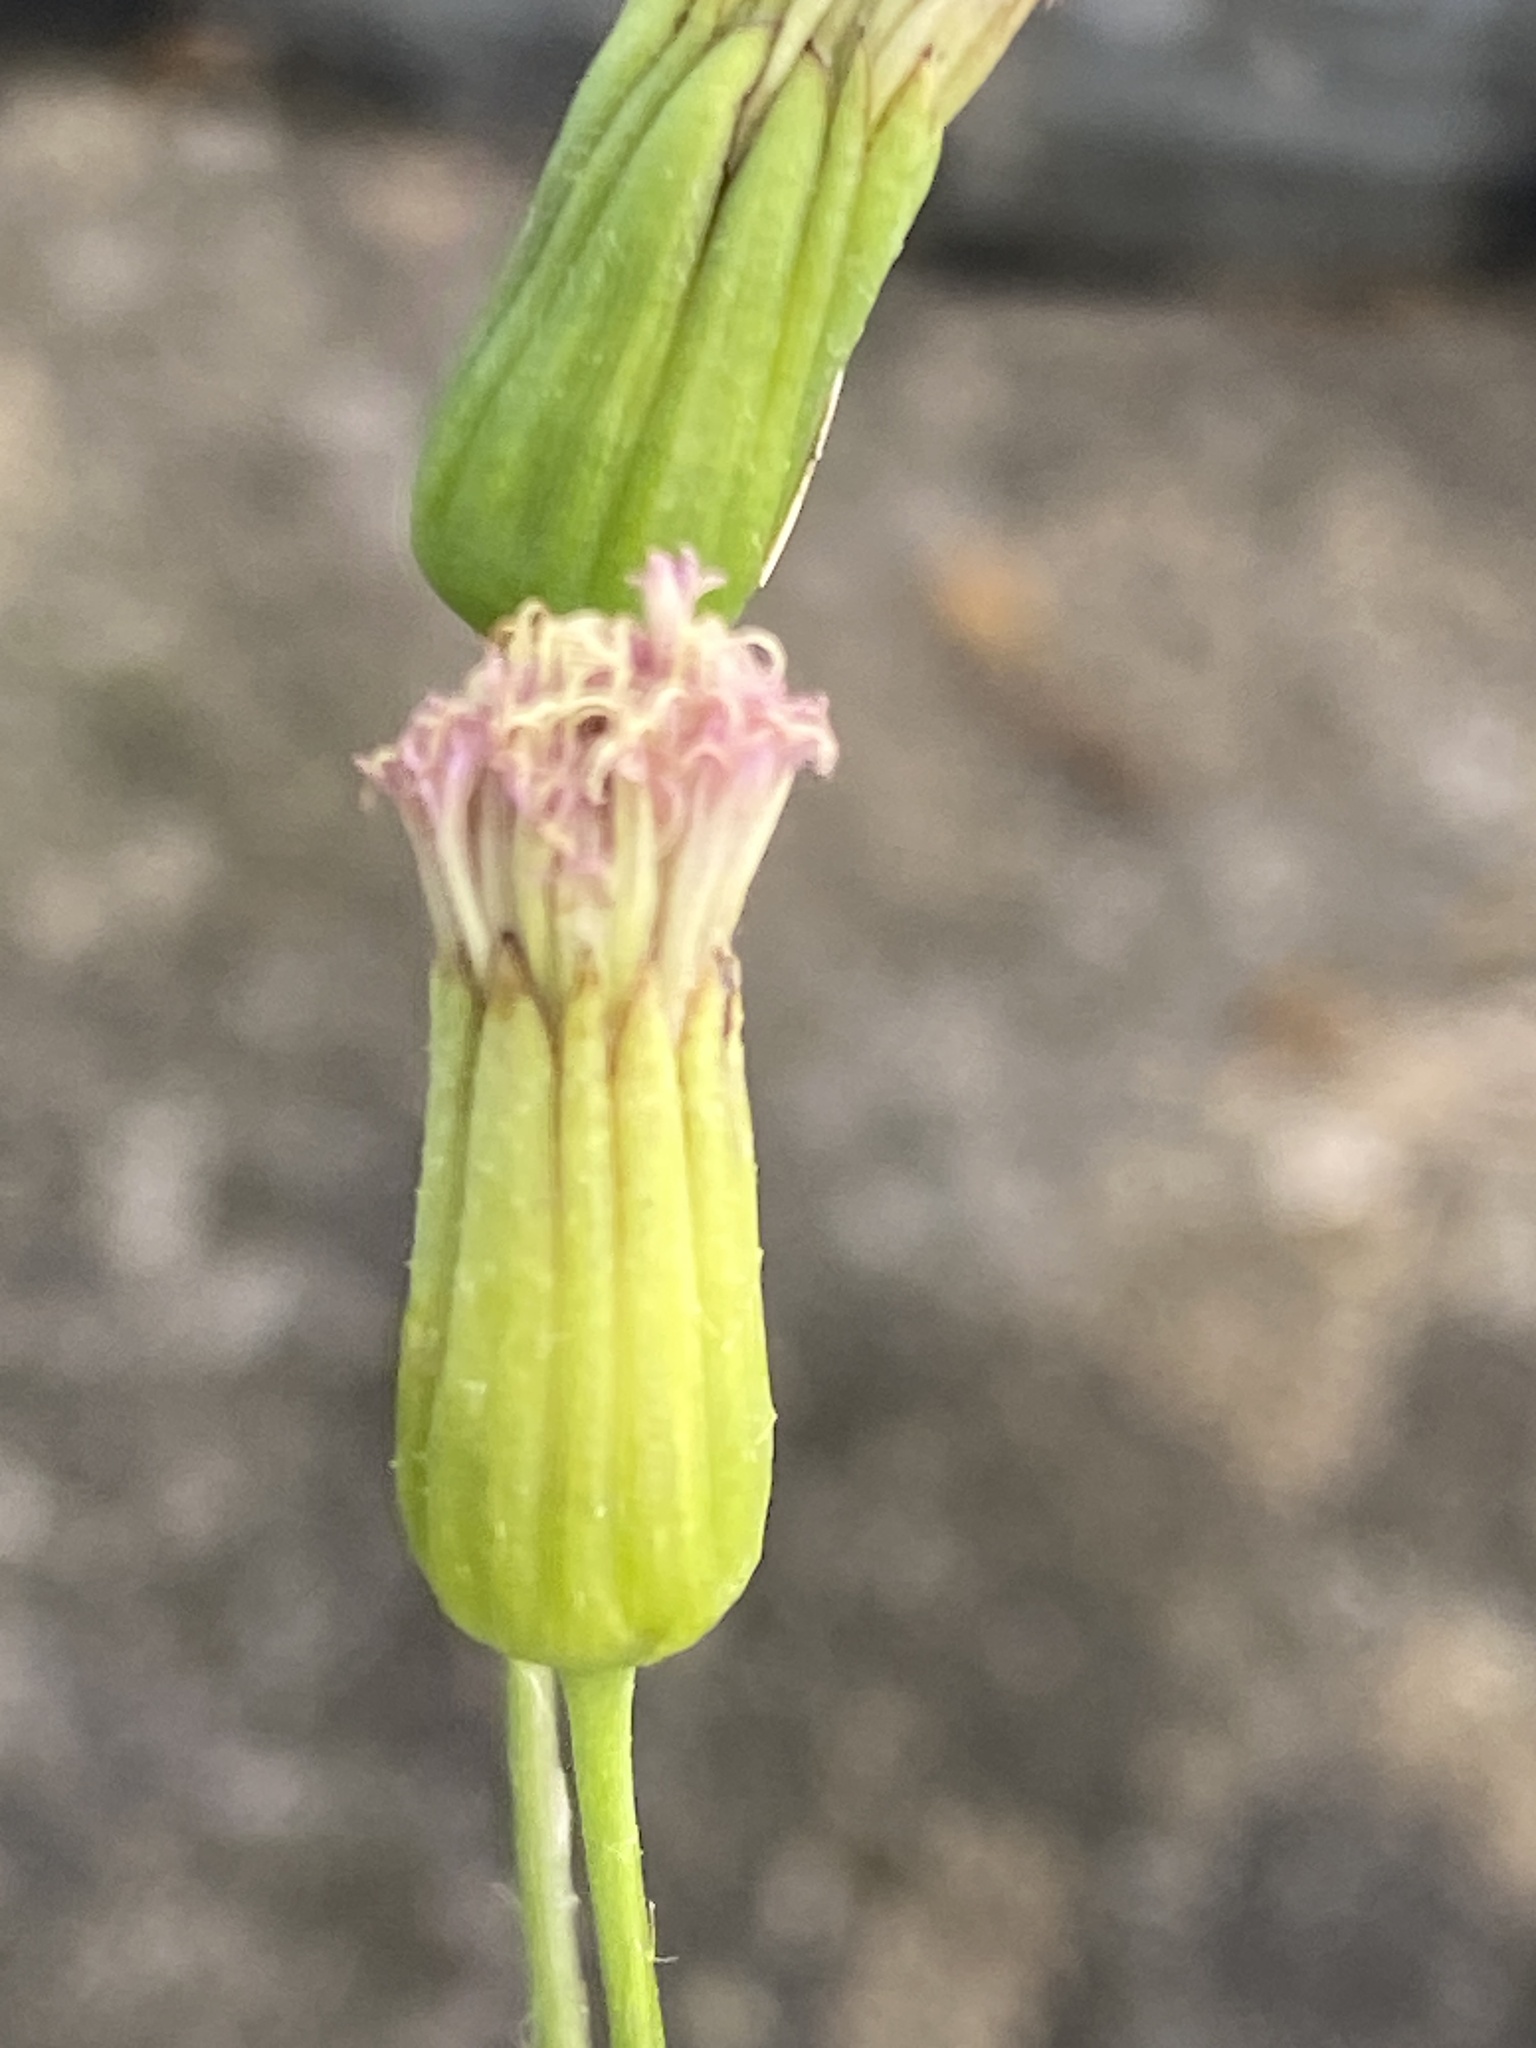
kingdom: Plantae
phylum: Tracheophyta
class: Magnoliopsida
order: Asterales
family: Asteraceae
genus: Emilia
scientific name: Emilia javanica
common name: Tassel-flower
